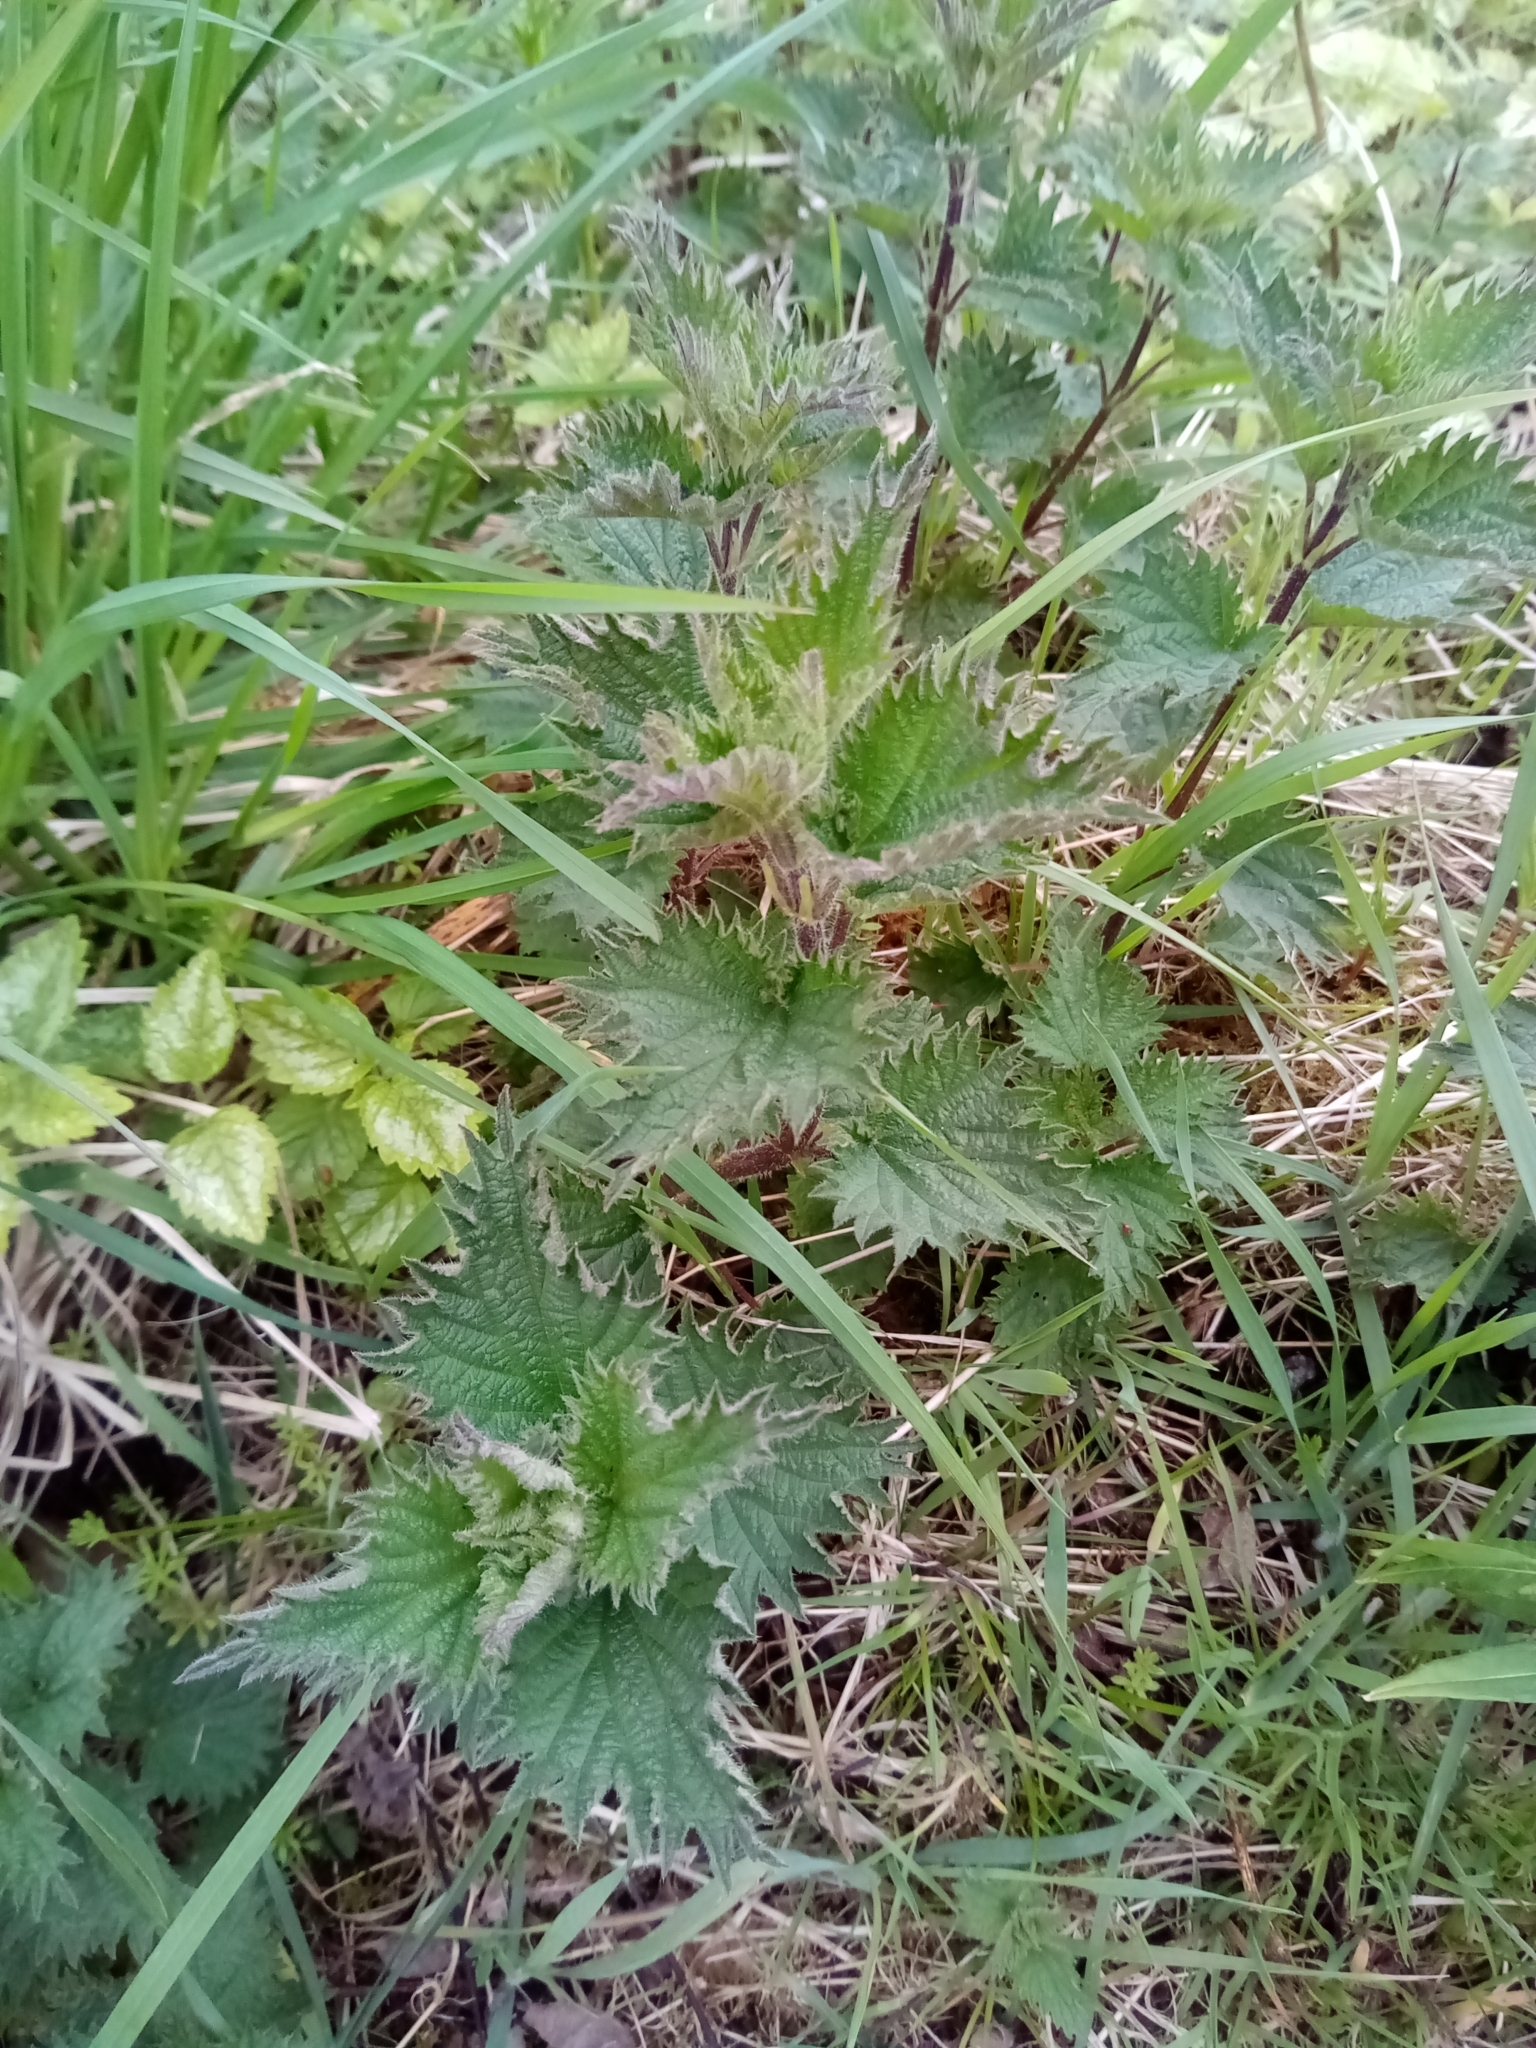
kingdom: Plantae
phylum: Tracheophyta
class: Magnoliopsida
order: Rosales
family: Urticaceae
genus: Urtica
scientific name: Urtica dioica
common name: Common nettle
